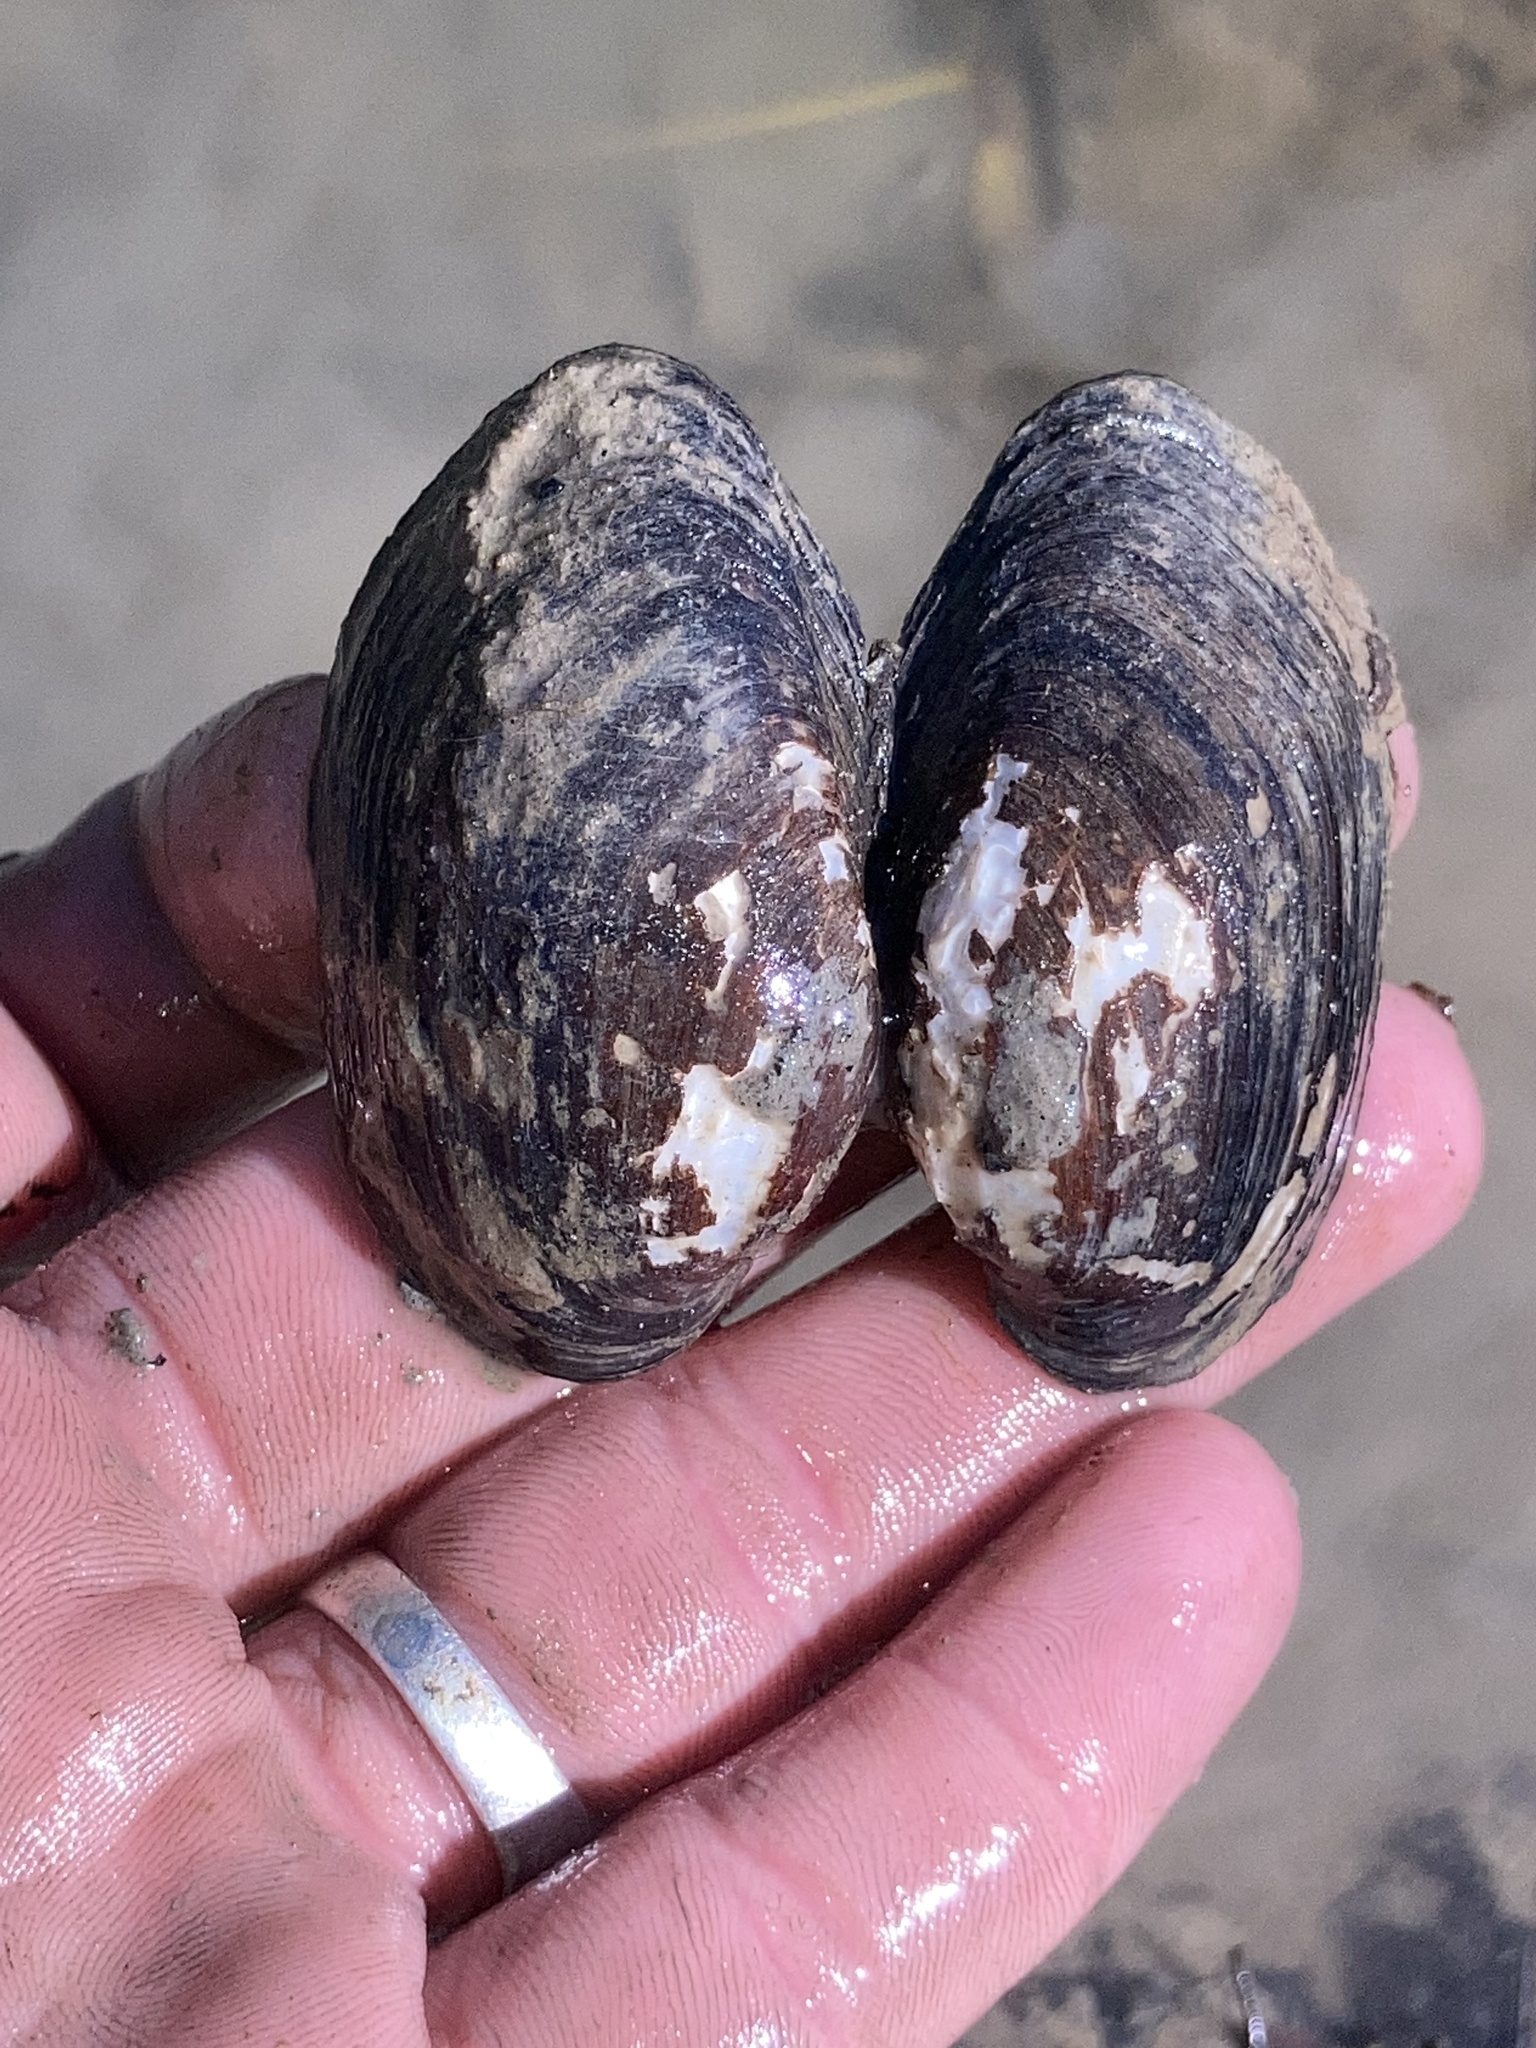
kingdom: Animalia
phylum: Mollusca
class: Bivalvia
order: Unionida
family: Unionidae
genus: Toxolasma
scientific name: Toxolasma texasiense
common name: Texas lilliput
